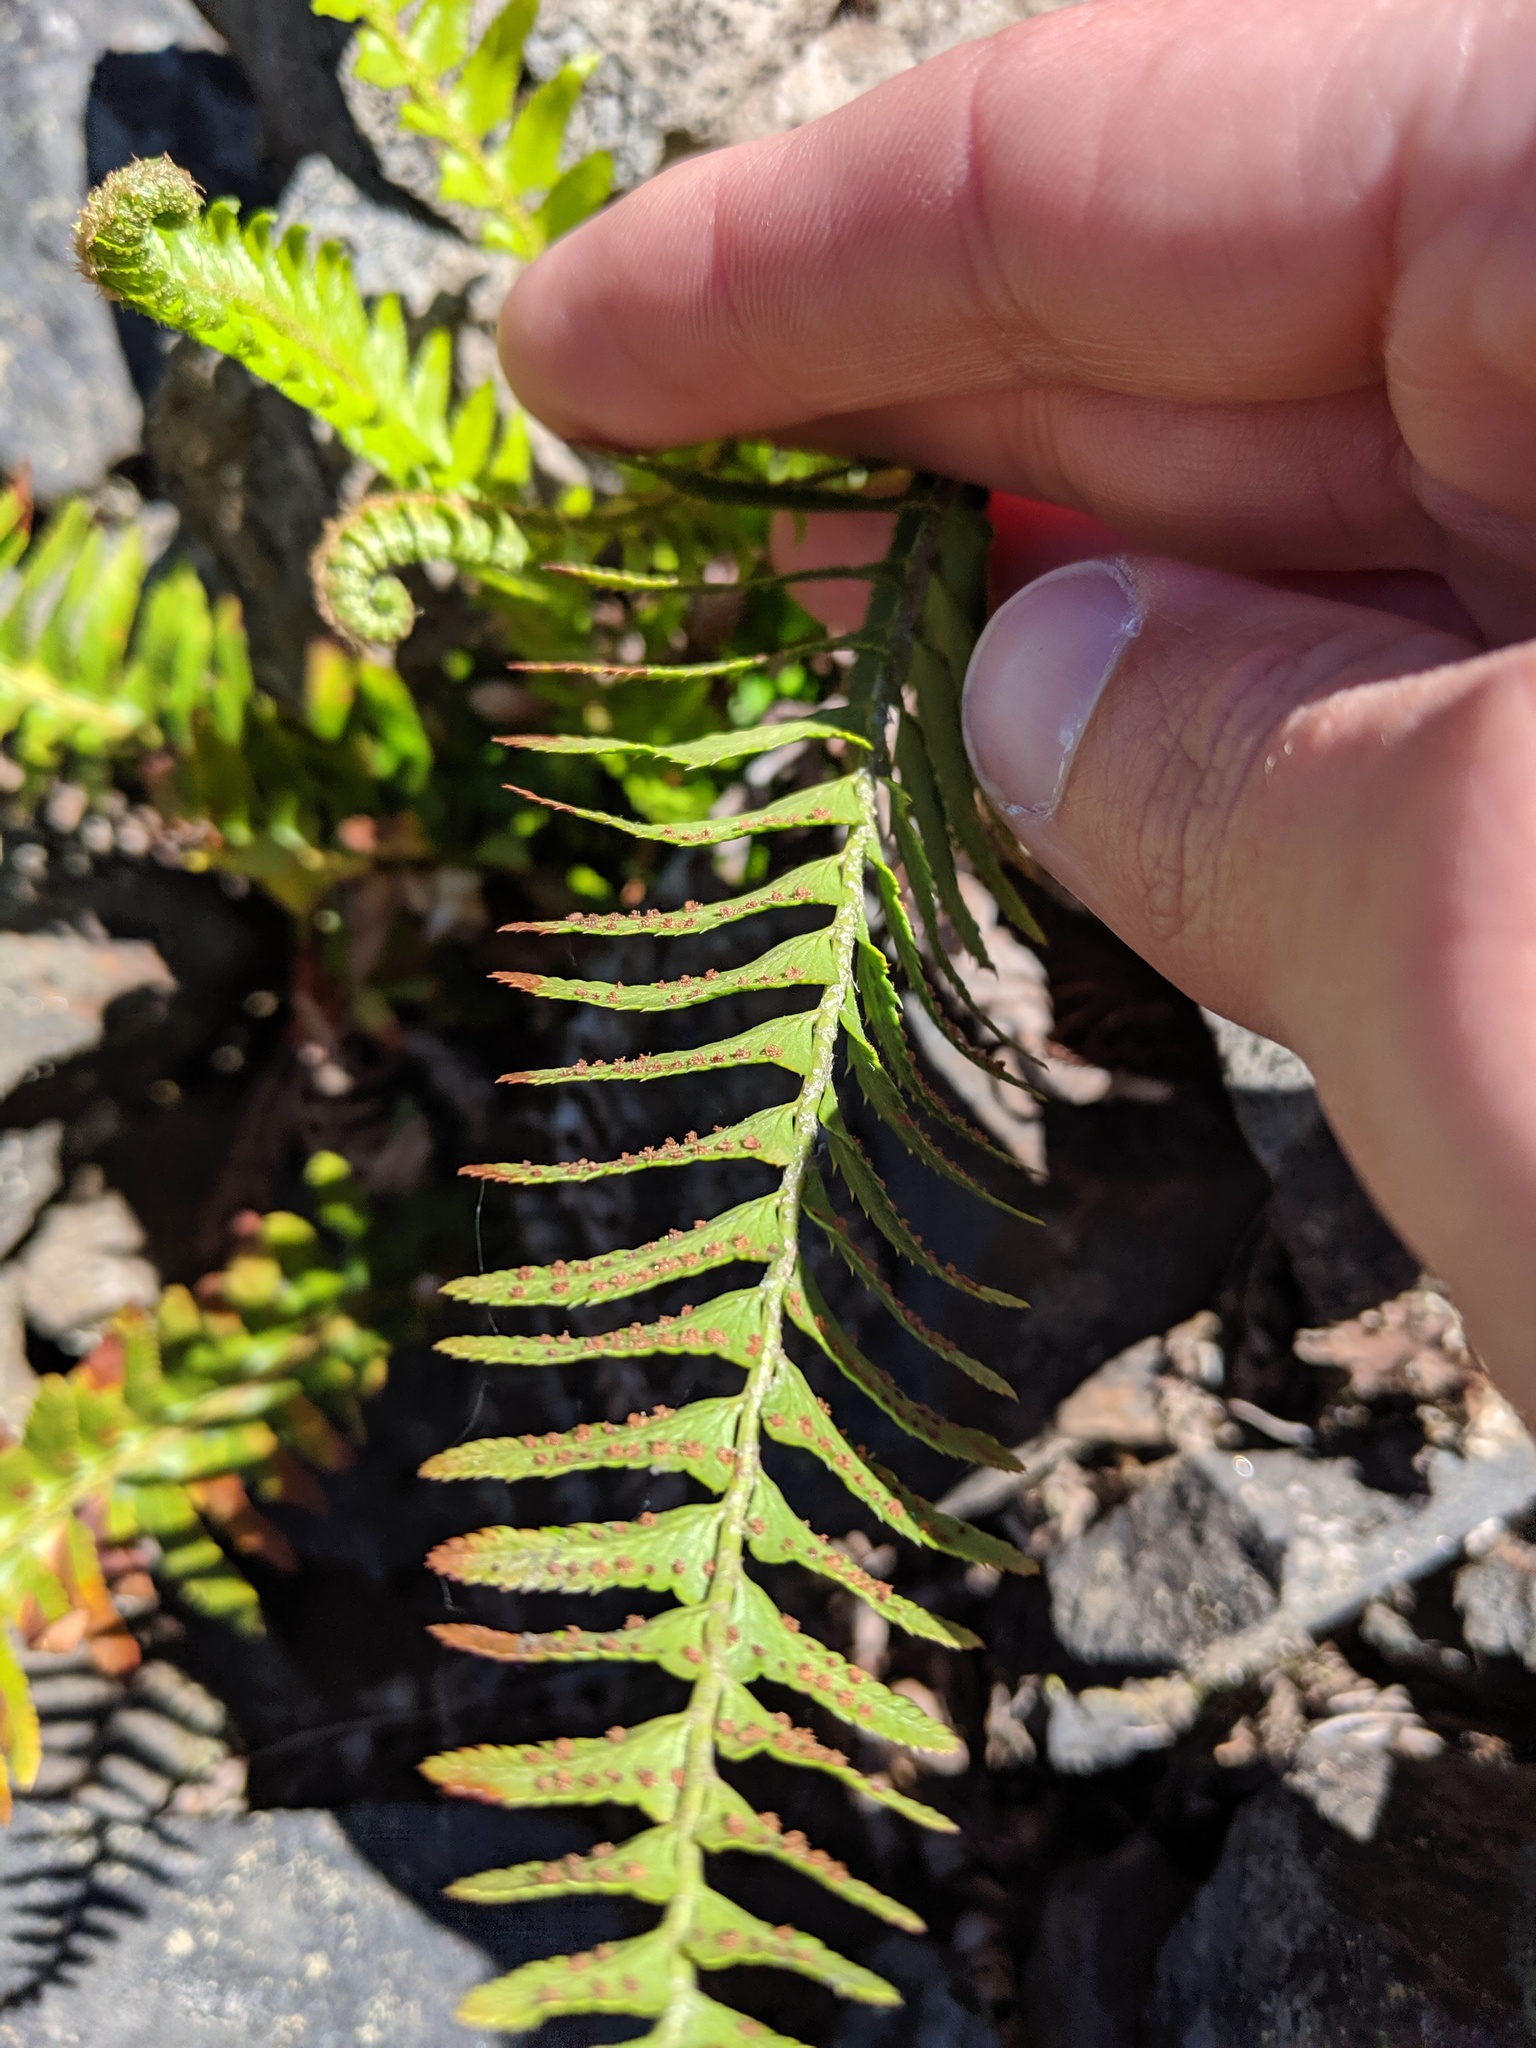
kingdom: Plantae
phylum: Tracheophyta
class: Polypodiopsida
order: Polypodiales
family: Dryopteridaceae
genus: Polystichum
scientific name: Polystichum imbricans
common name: Dwarf western sword fern
